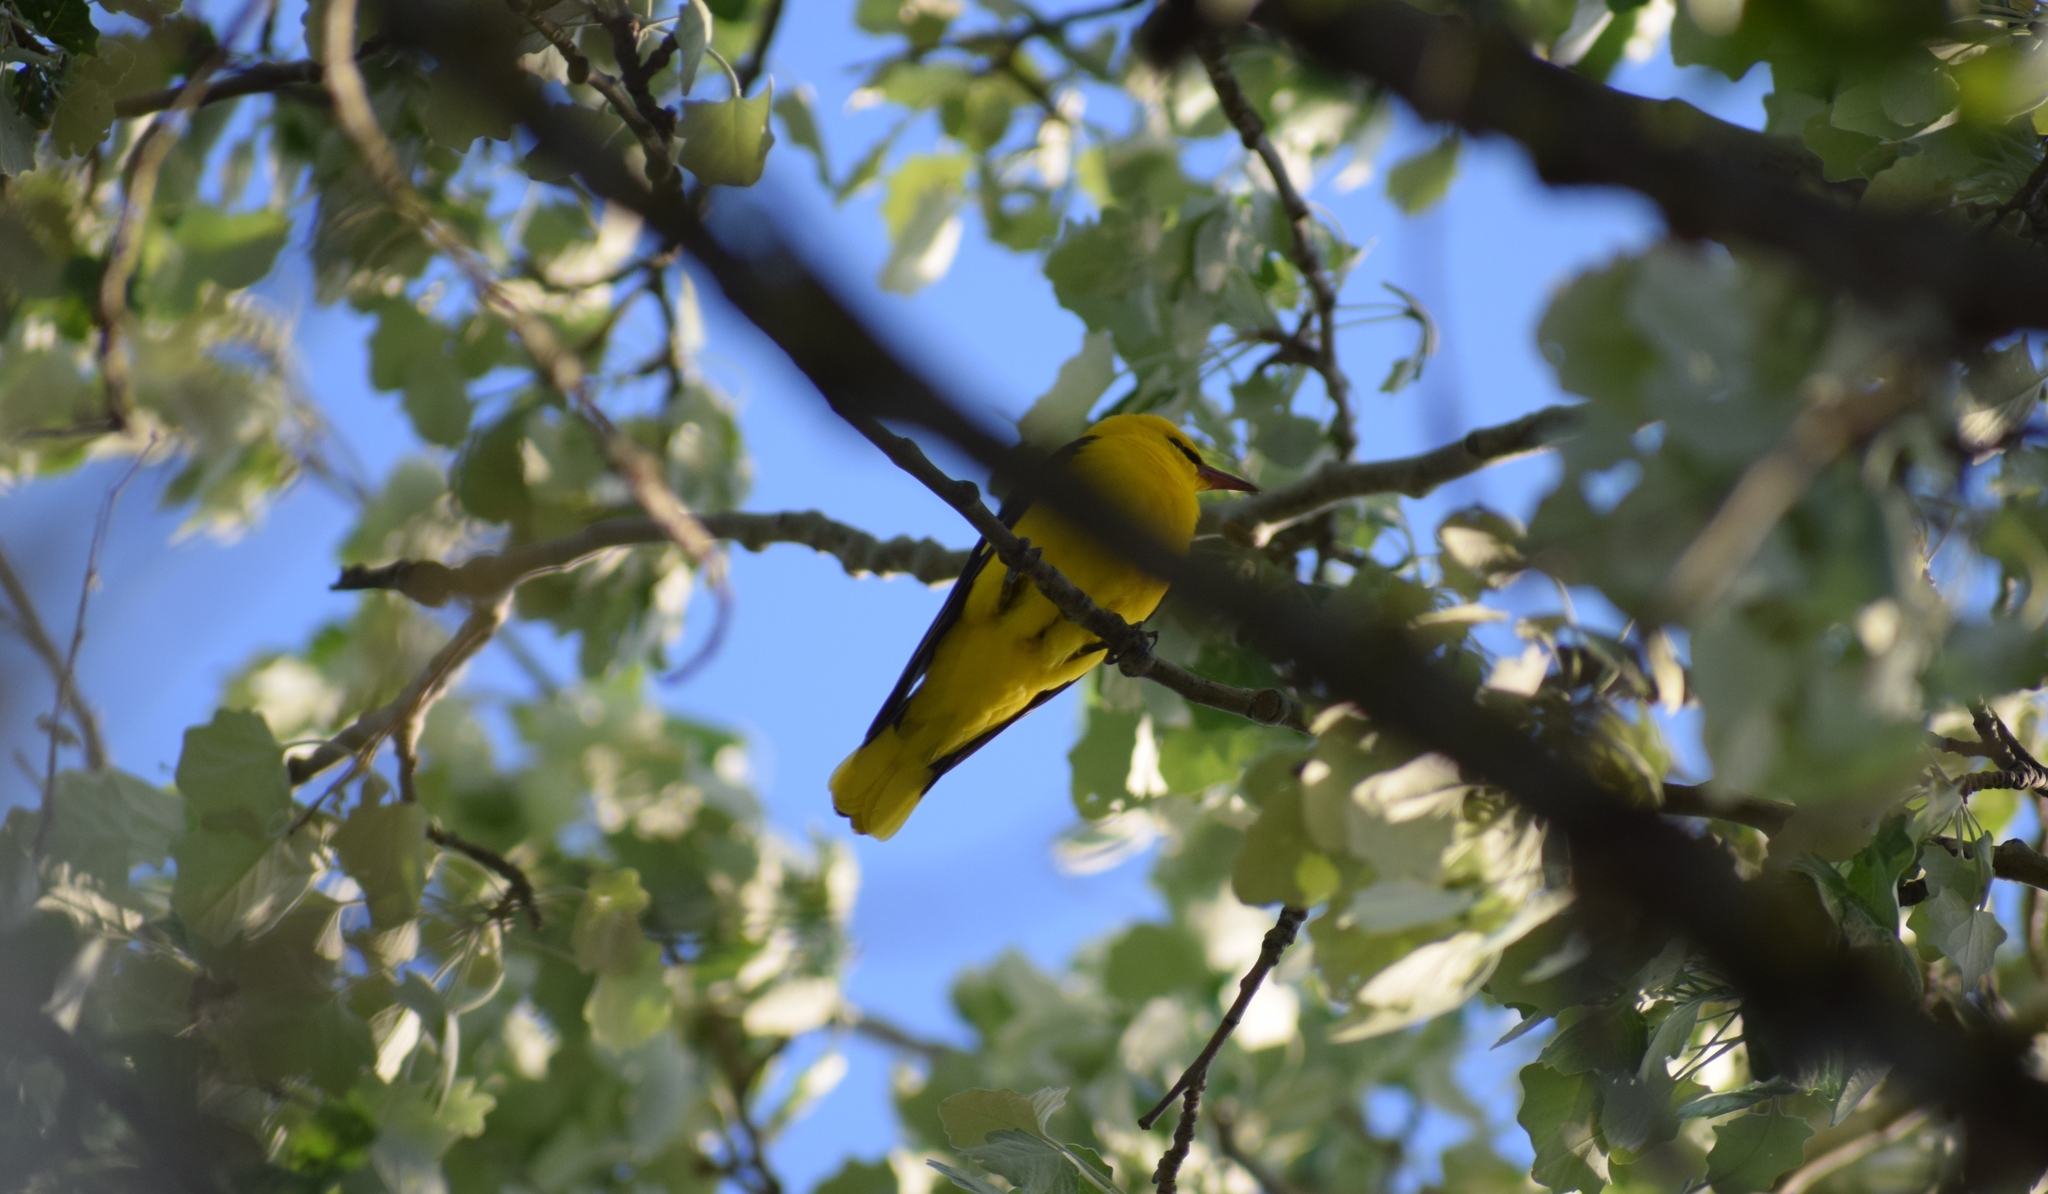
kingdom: Animalia
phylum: Chordata
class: Aves
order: Passeriformes
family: Oriolidae
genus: Oriolus
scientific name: Oriolus oriolus
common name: Eurasian golden oriole
